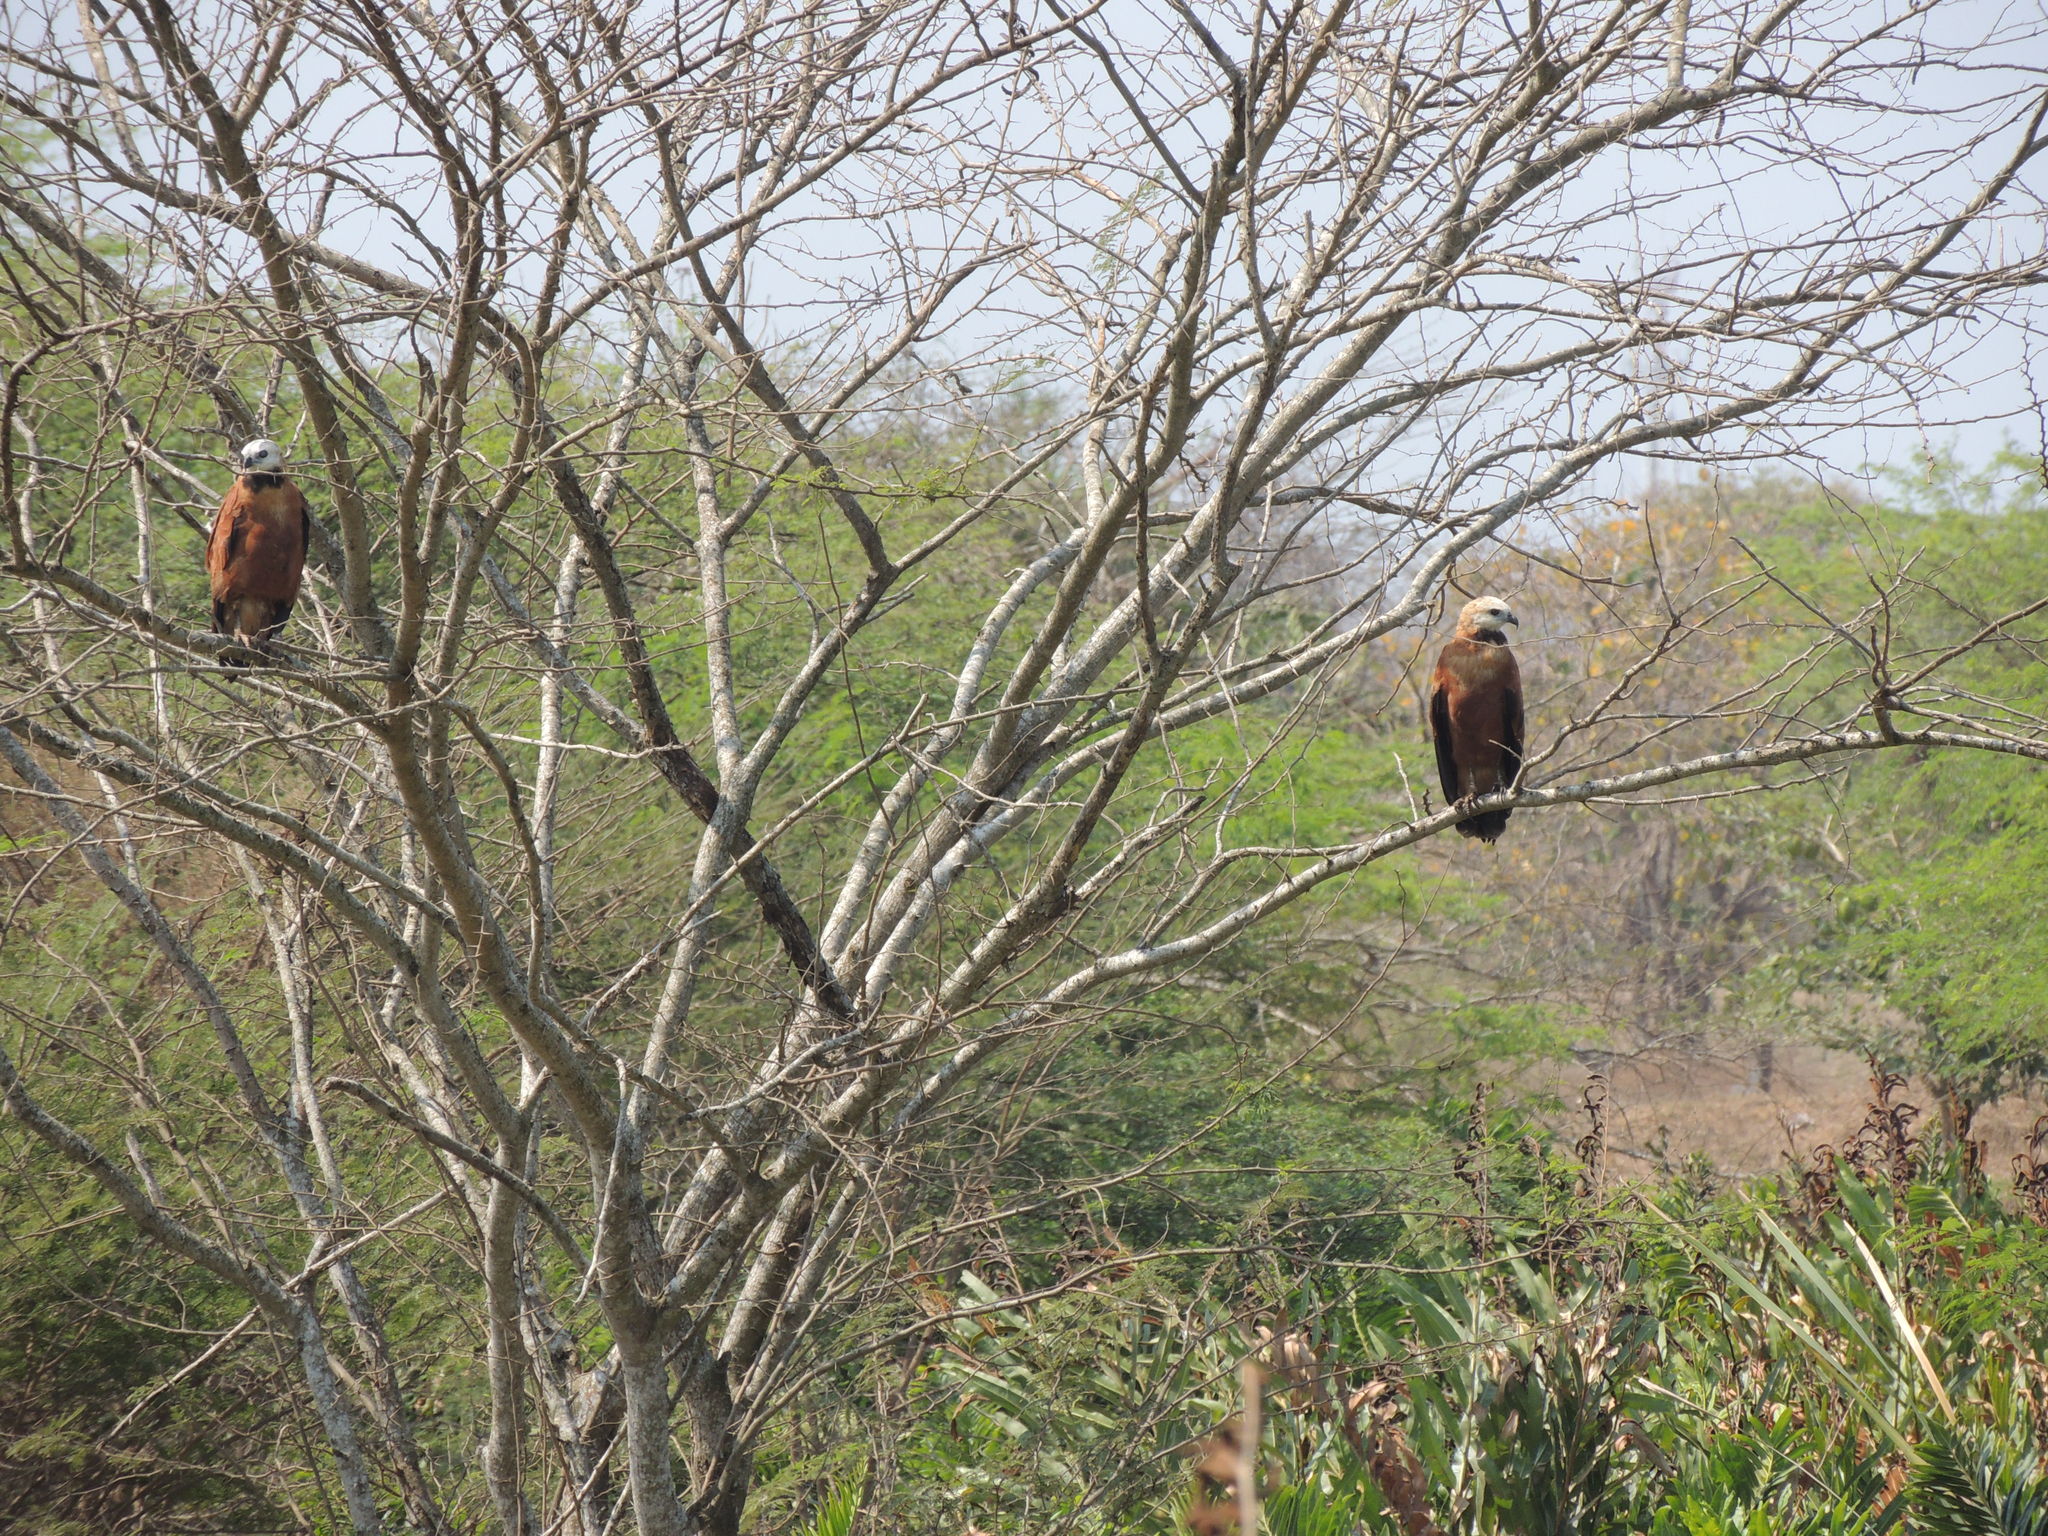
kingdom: Animalia
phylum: Chordata
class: Aves
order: Accipitriformes
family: Accipitridae
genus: Busarellus
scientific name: Busarellus nigricollis
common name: Black-collared hawk
